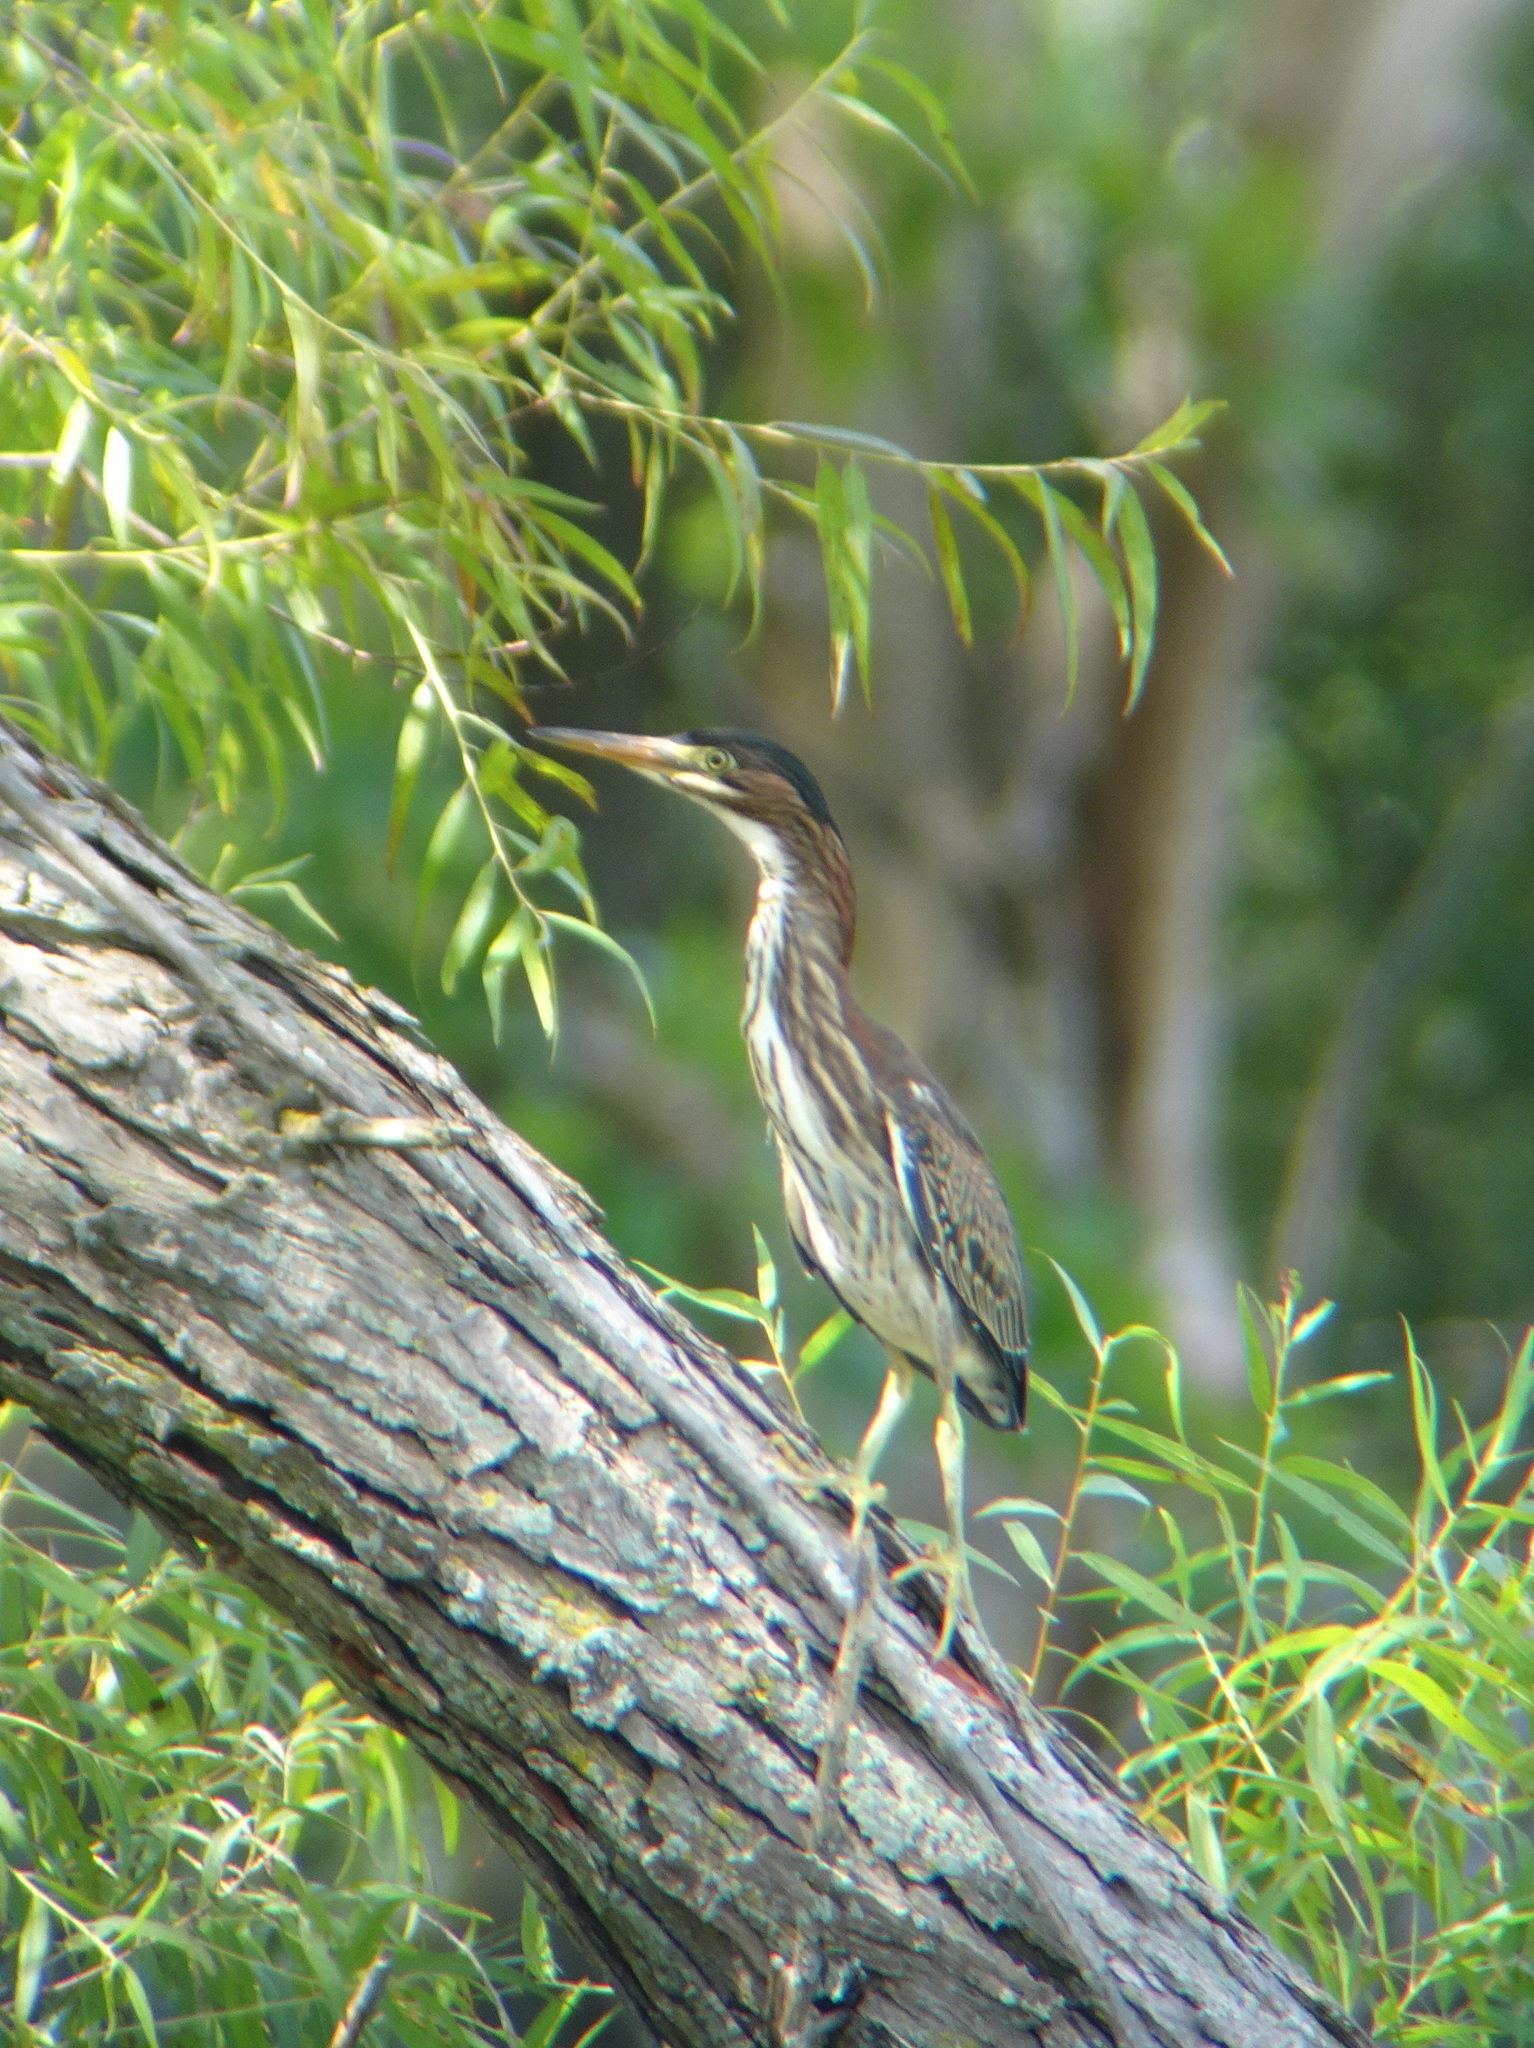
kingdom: Animalia
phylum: Chordata
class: Aves
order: Pelecaniformes
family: Ardeidae
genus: Butorides
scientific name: Butorides virescens
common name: Green heron
